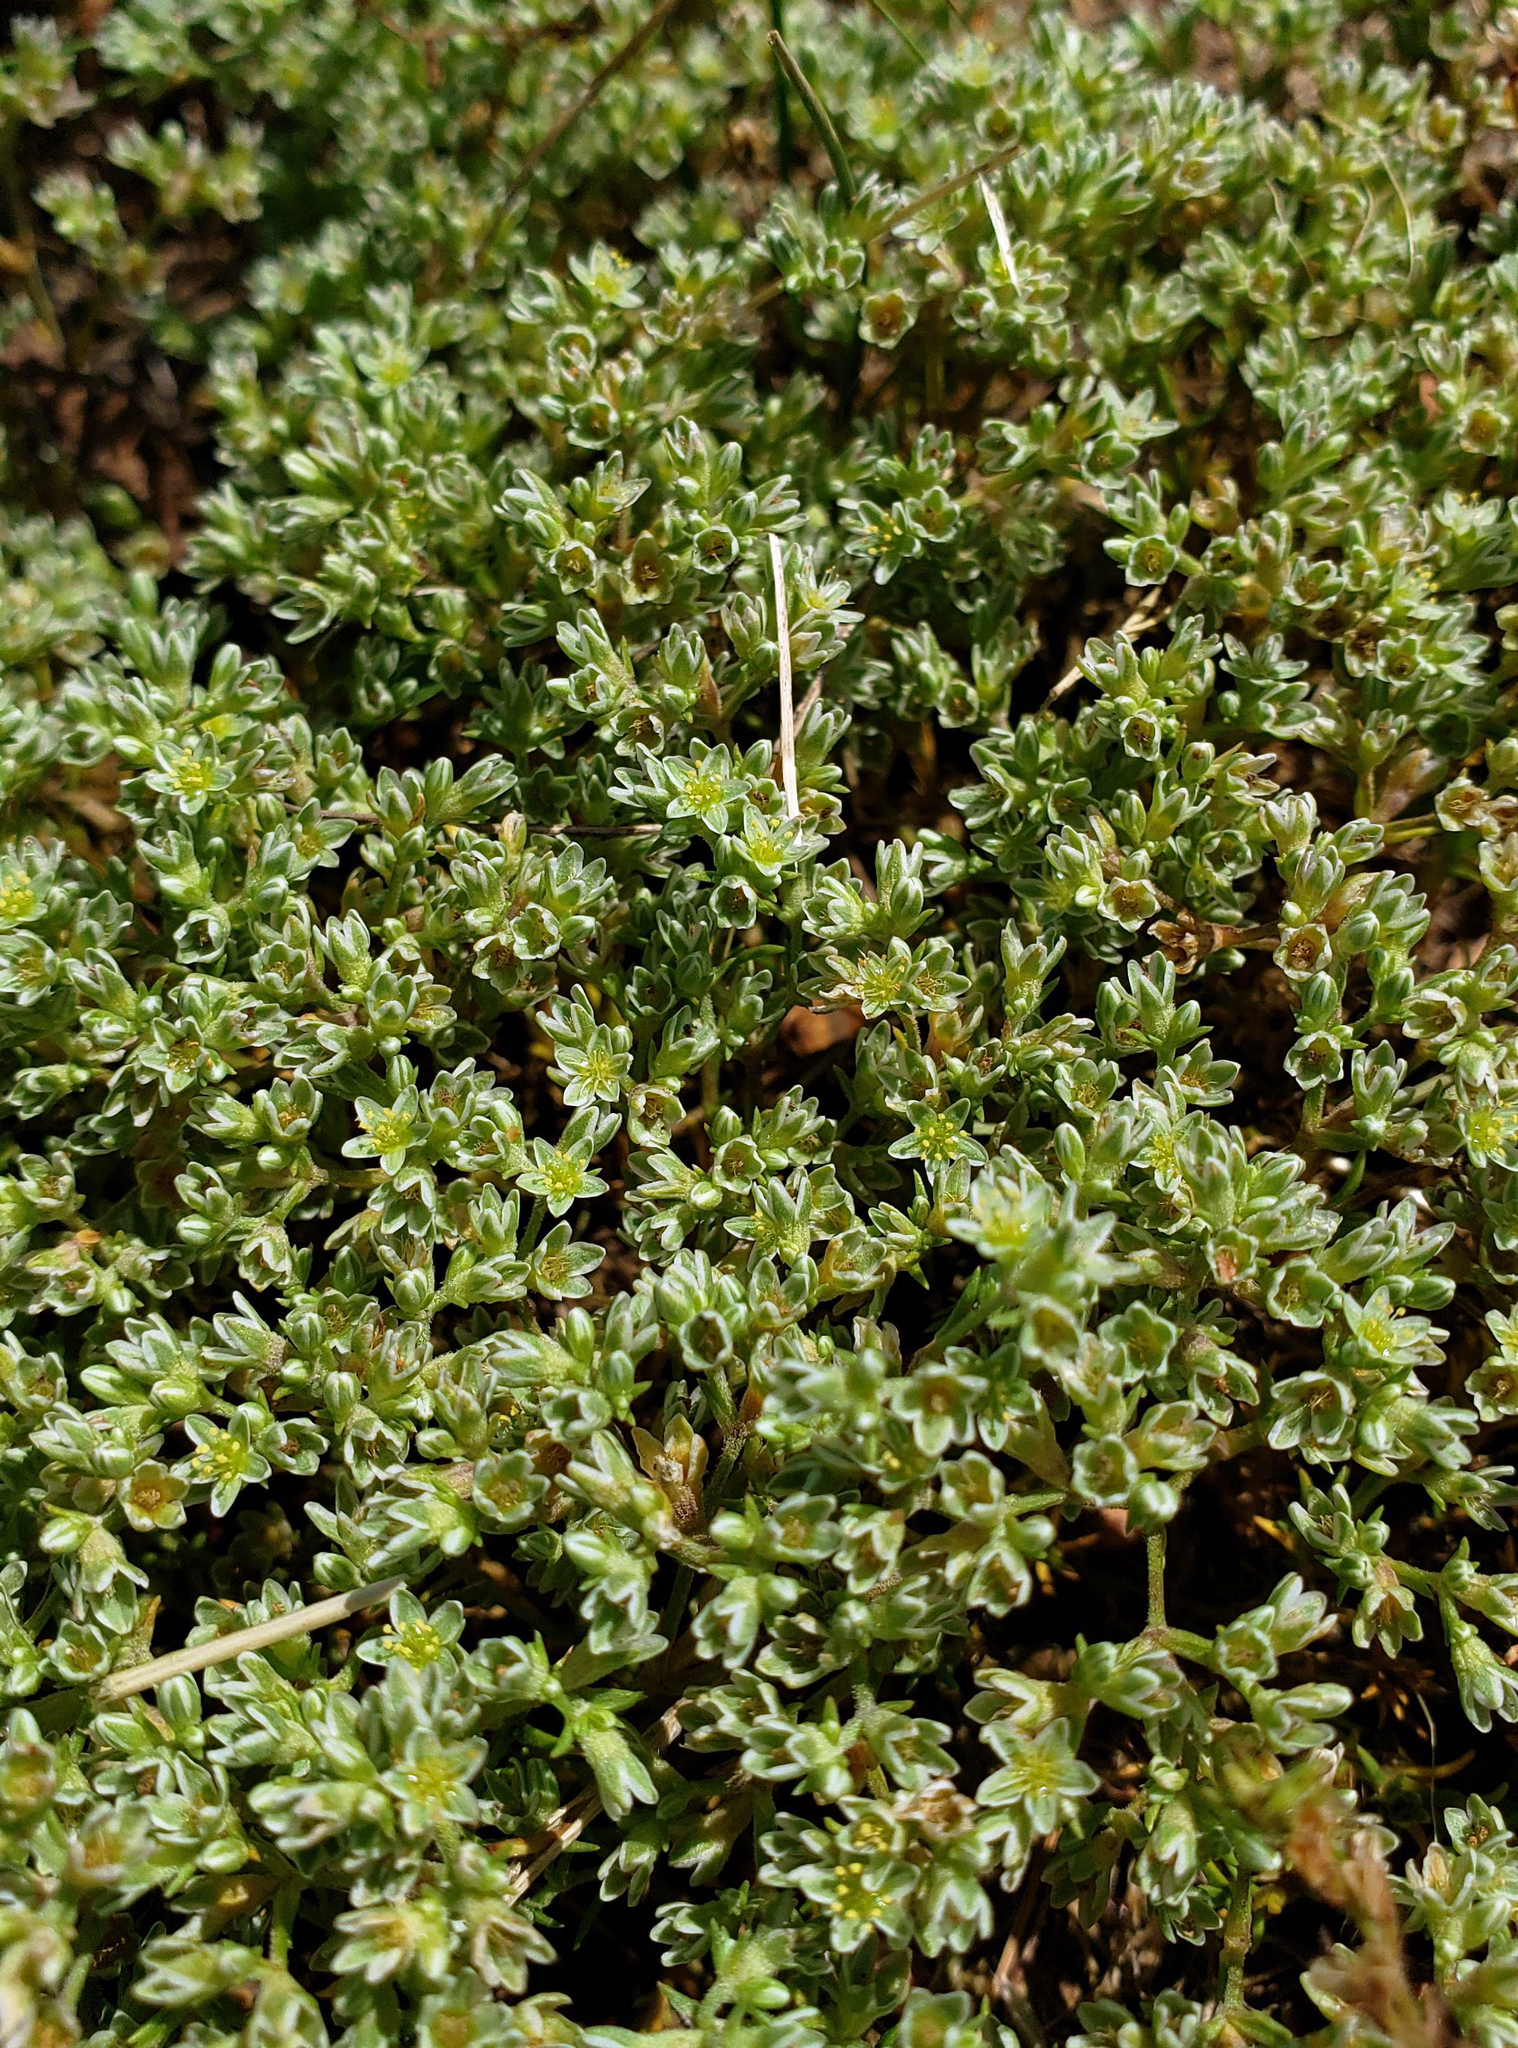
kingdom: Plantae
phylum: Tracheophyta
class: Magnoliopsida
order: Caryophyllales
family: Caryophyllaceae
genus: Scleranthus
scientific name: Scleranthus perennis
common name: Perennial knawel
